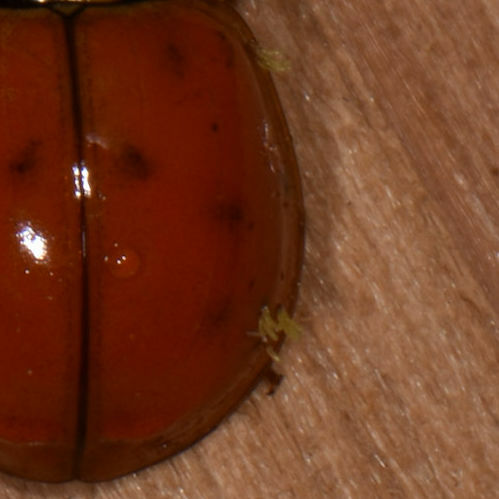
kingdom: Fungi
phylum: Ascomycota
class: Laboulbeniomycetes
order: Laboulbeniales
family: Laboulbeniaceae
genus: Hesperomyces
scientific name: Hesperomyces harmoniae
